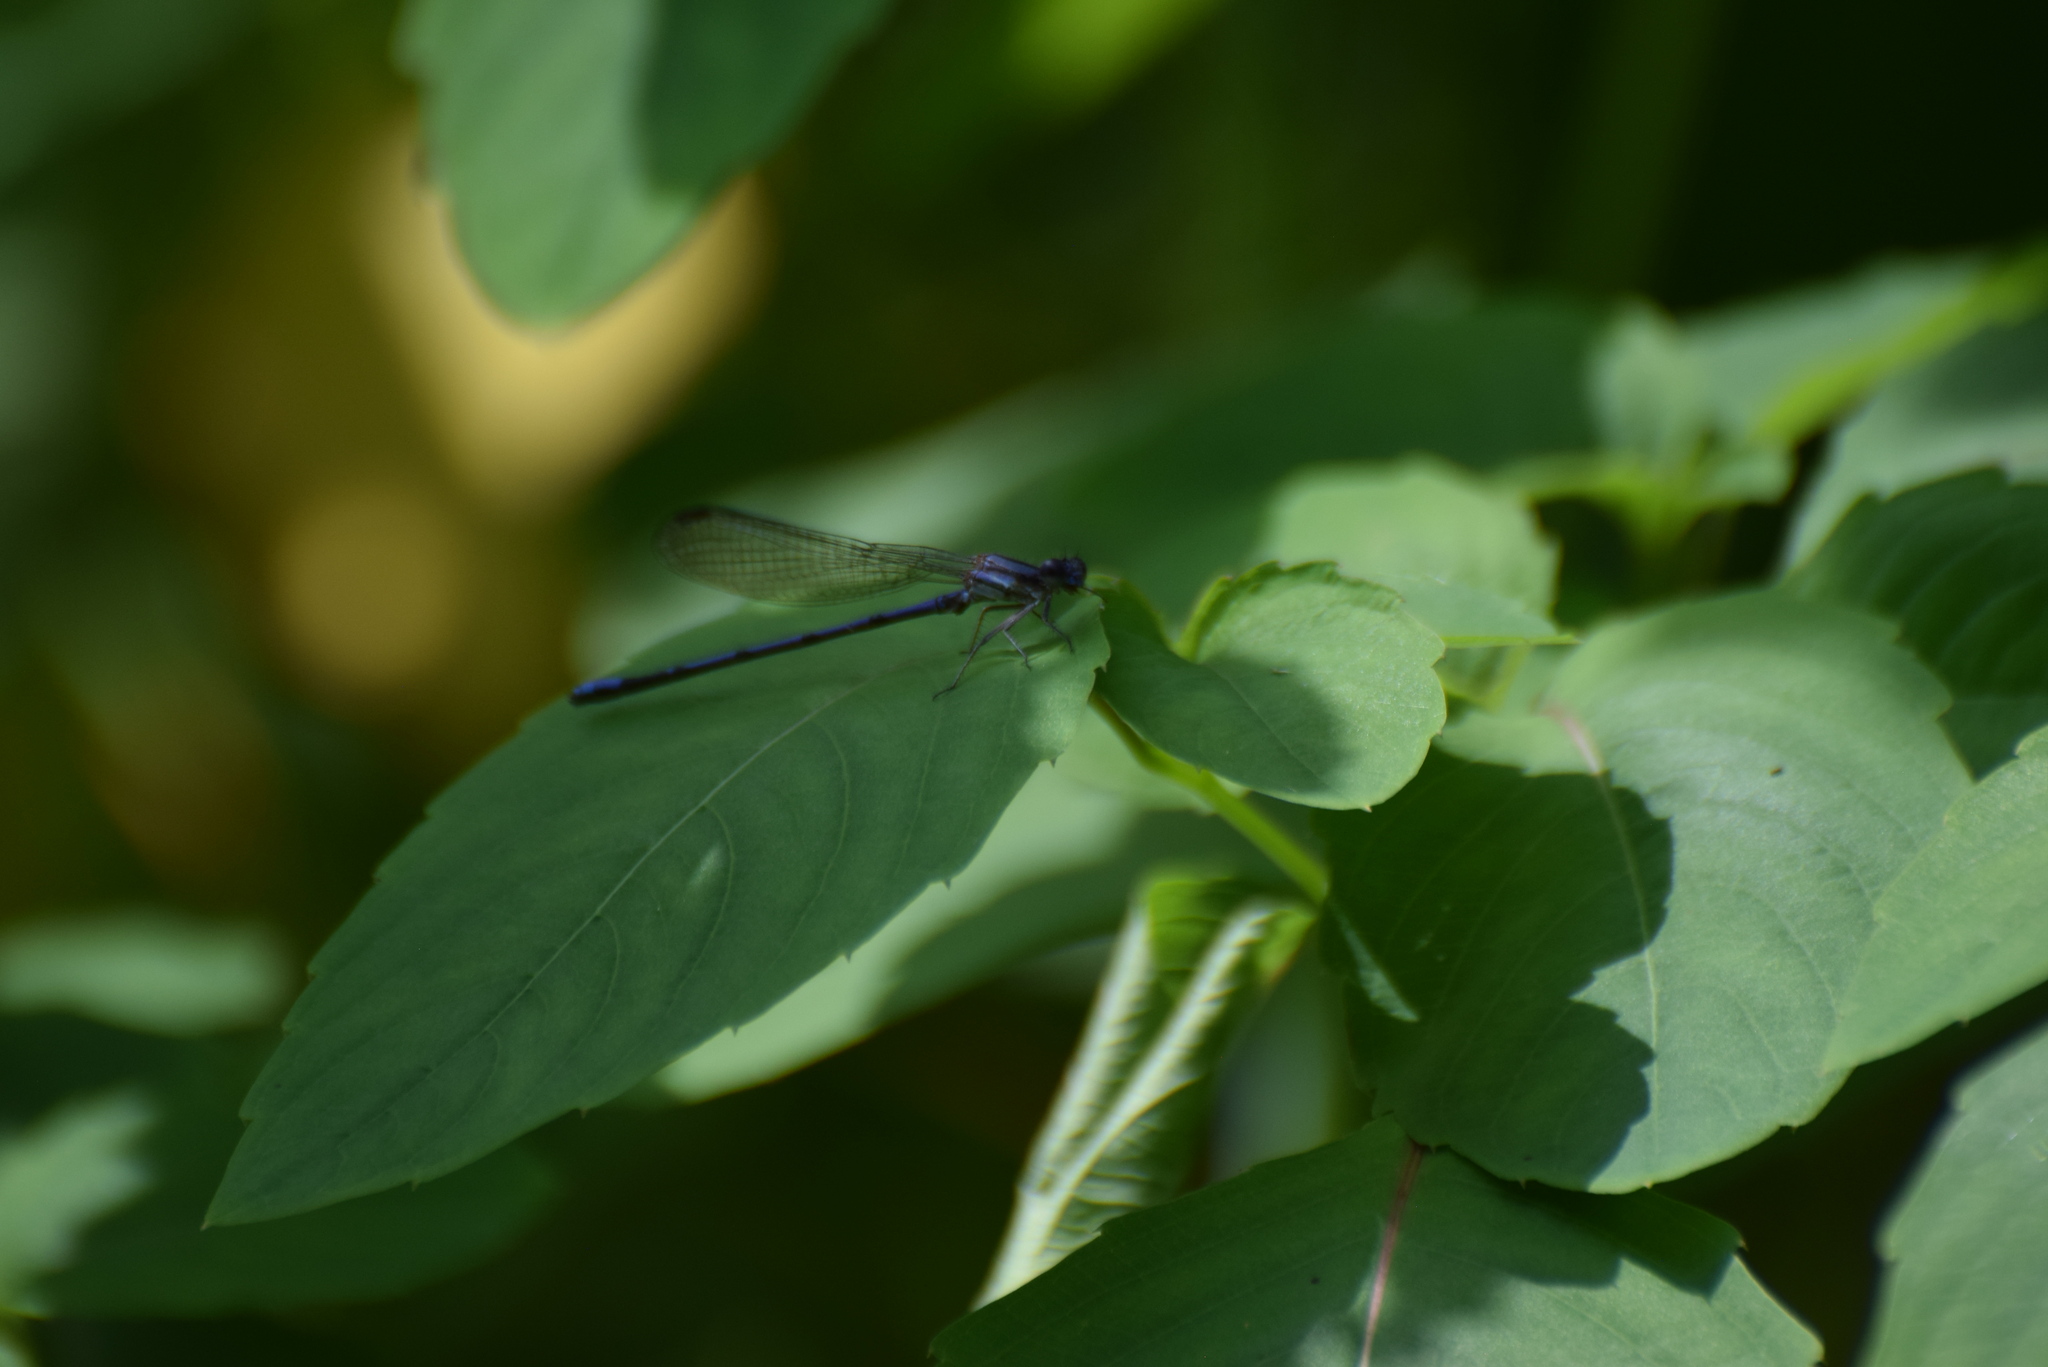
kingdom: Animalia
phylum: Arthropoda
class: Insecta
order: Odonata
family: Coenagrionidae
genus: Argia
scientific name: Argia fumipennis
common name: Variable dancer
